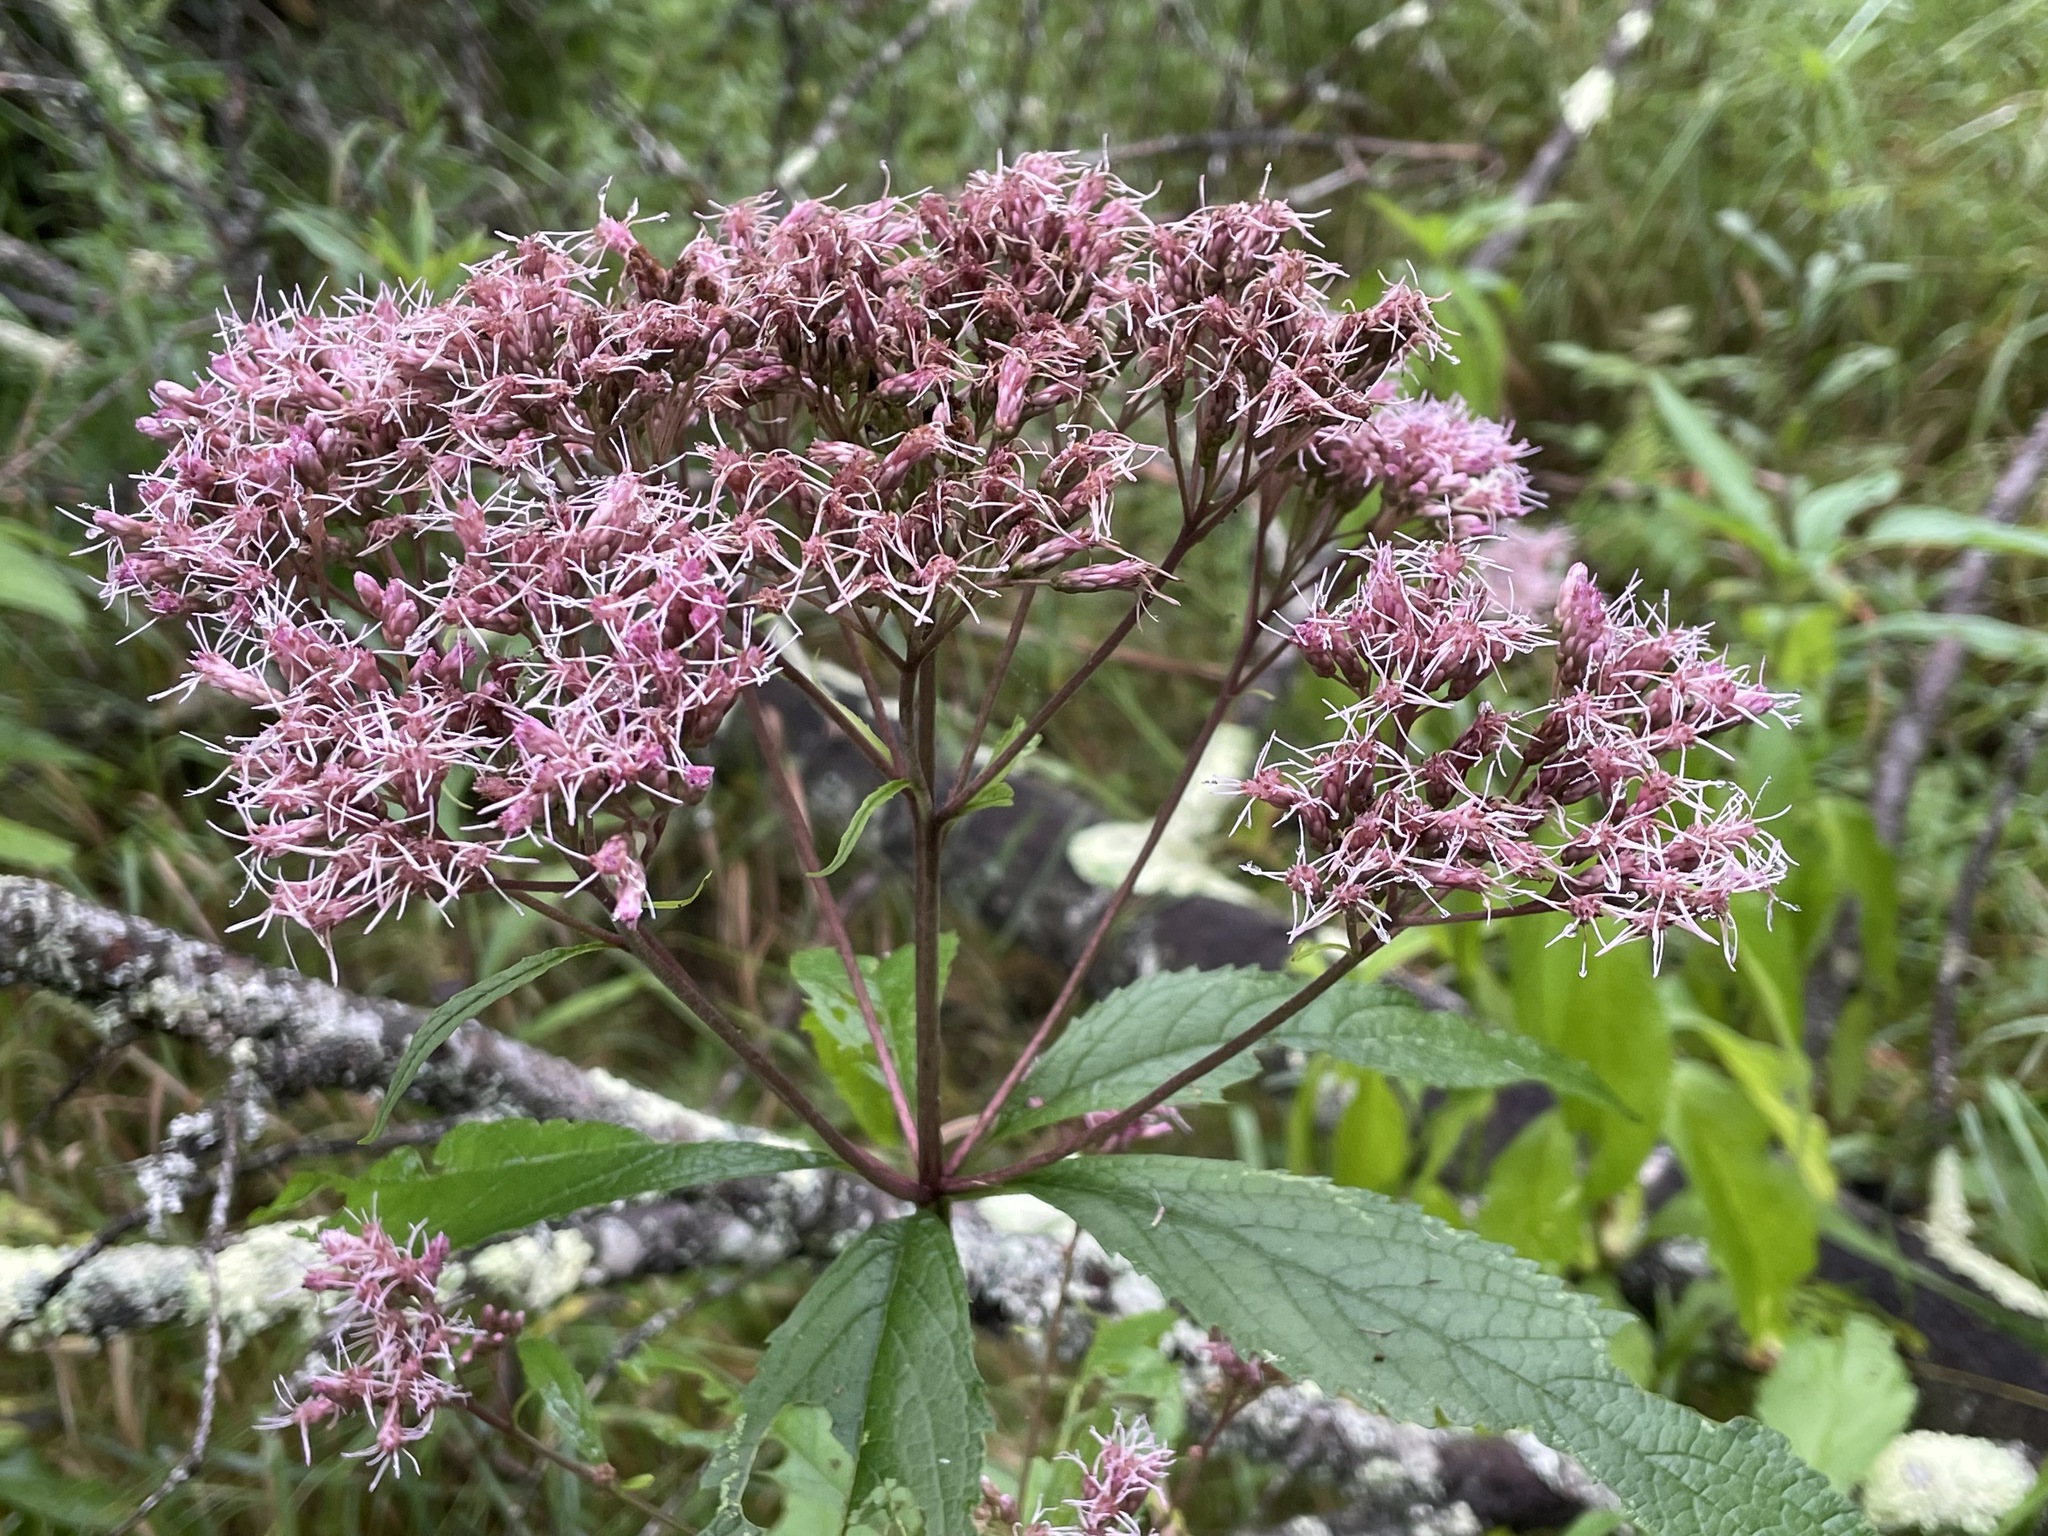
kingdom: Plantae
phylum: Tracheophyta
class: Magnoliopsida
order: Asterales
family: Asteraceae
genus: Eutrochium
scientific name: Eutrochium maculatum
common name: Spotted joe pye weed
